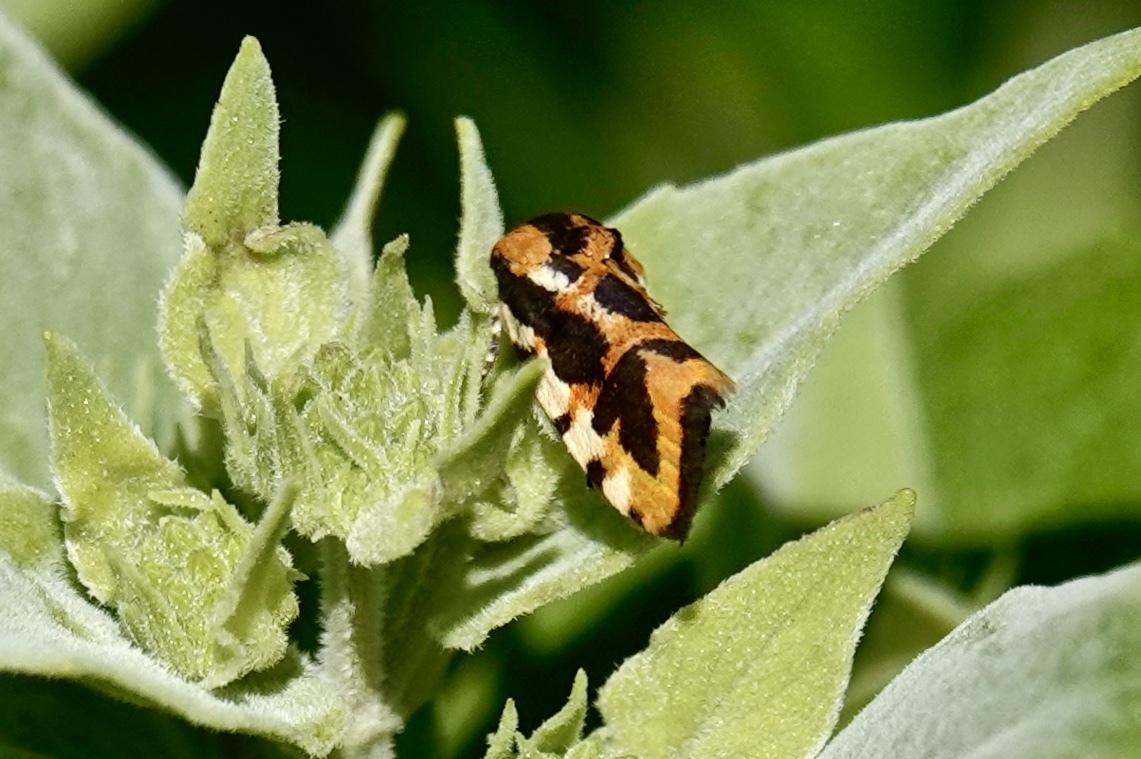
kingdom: Animalia
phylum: Arthropoda
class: Insecta
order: Lepidoptera
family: Noctuidae
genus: Acontia
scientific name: Acontia leo
